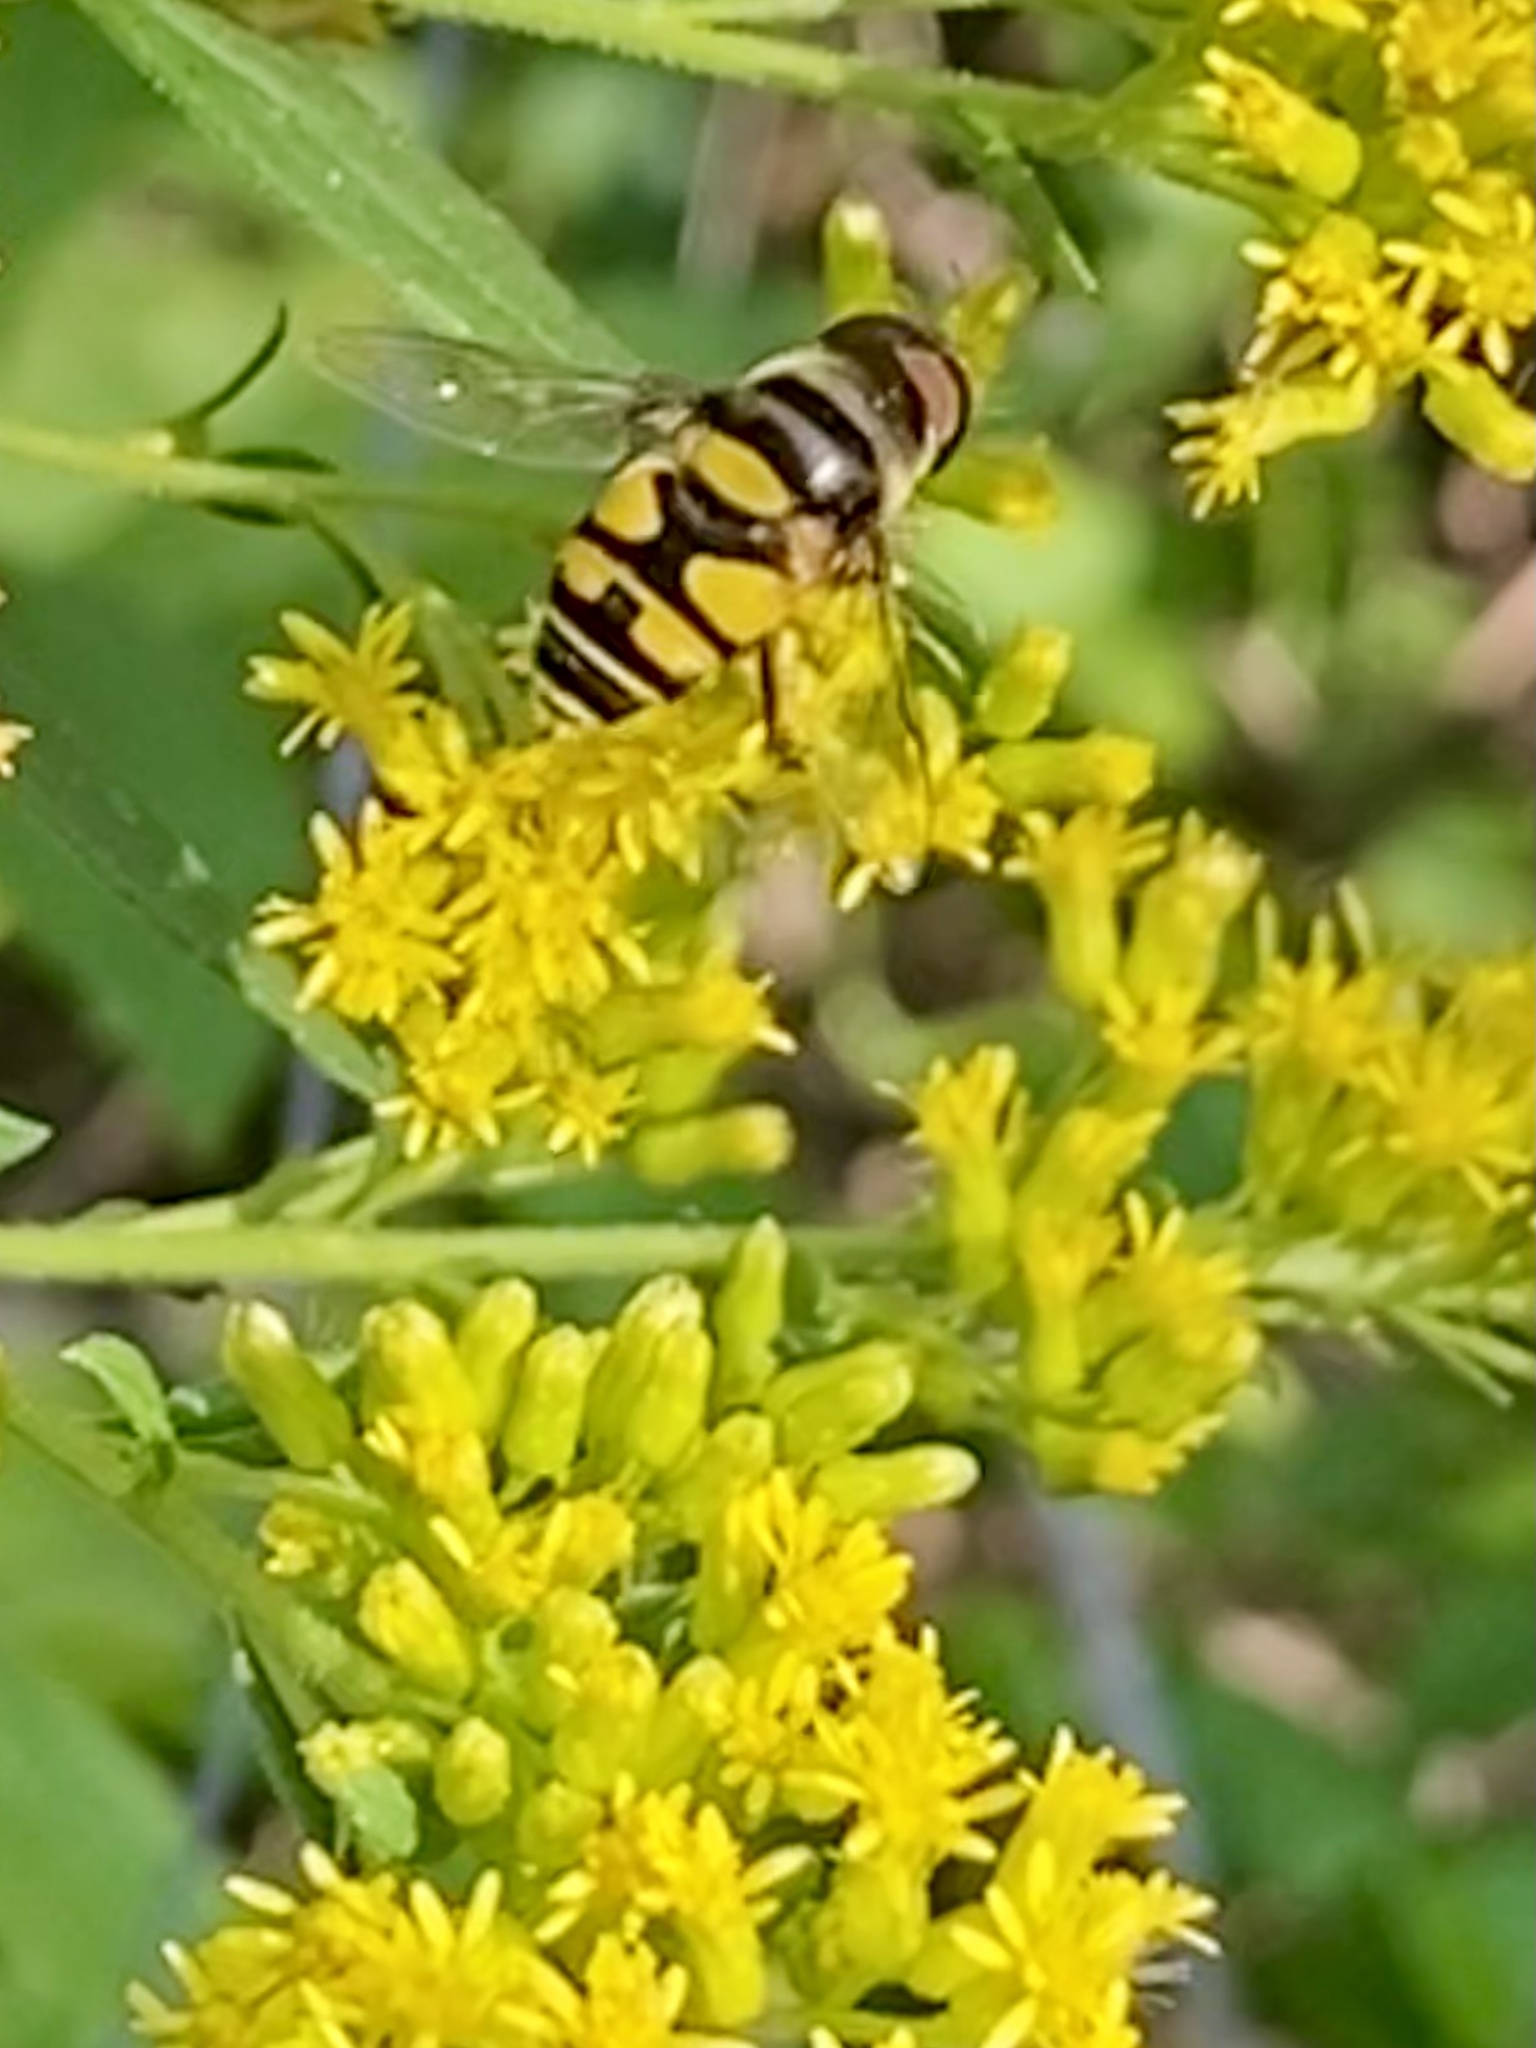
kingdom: Animalia
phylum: Arthropoda
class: Insecta
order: Diptera
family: Syrphidae
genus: Eristalis
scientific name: Eristalis transversa
